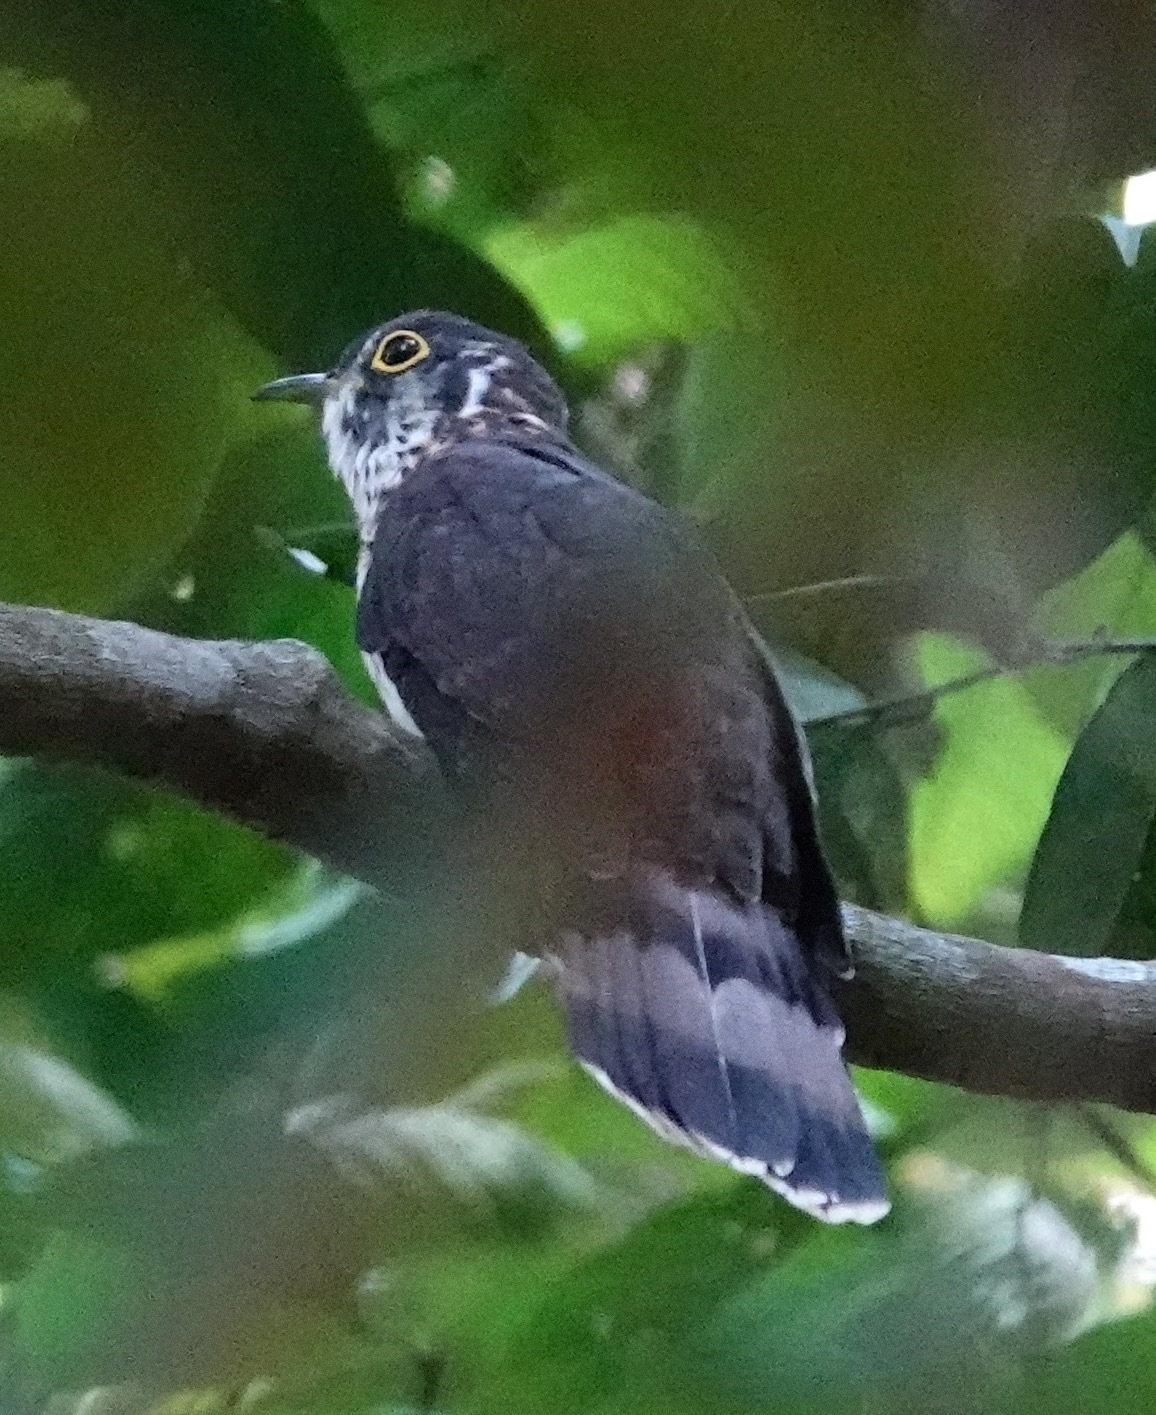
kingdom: Animalia
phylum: Chordata
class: Aves
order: Cuculiformes
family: Cuculidae
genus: Cuculus
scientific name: Cuculus vagans
